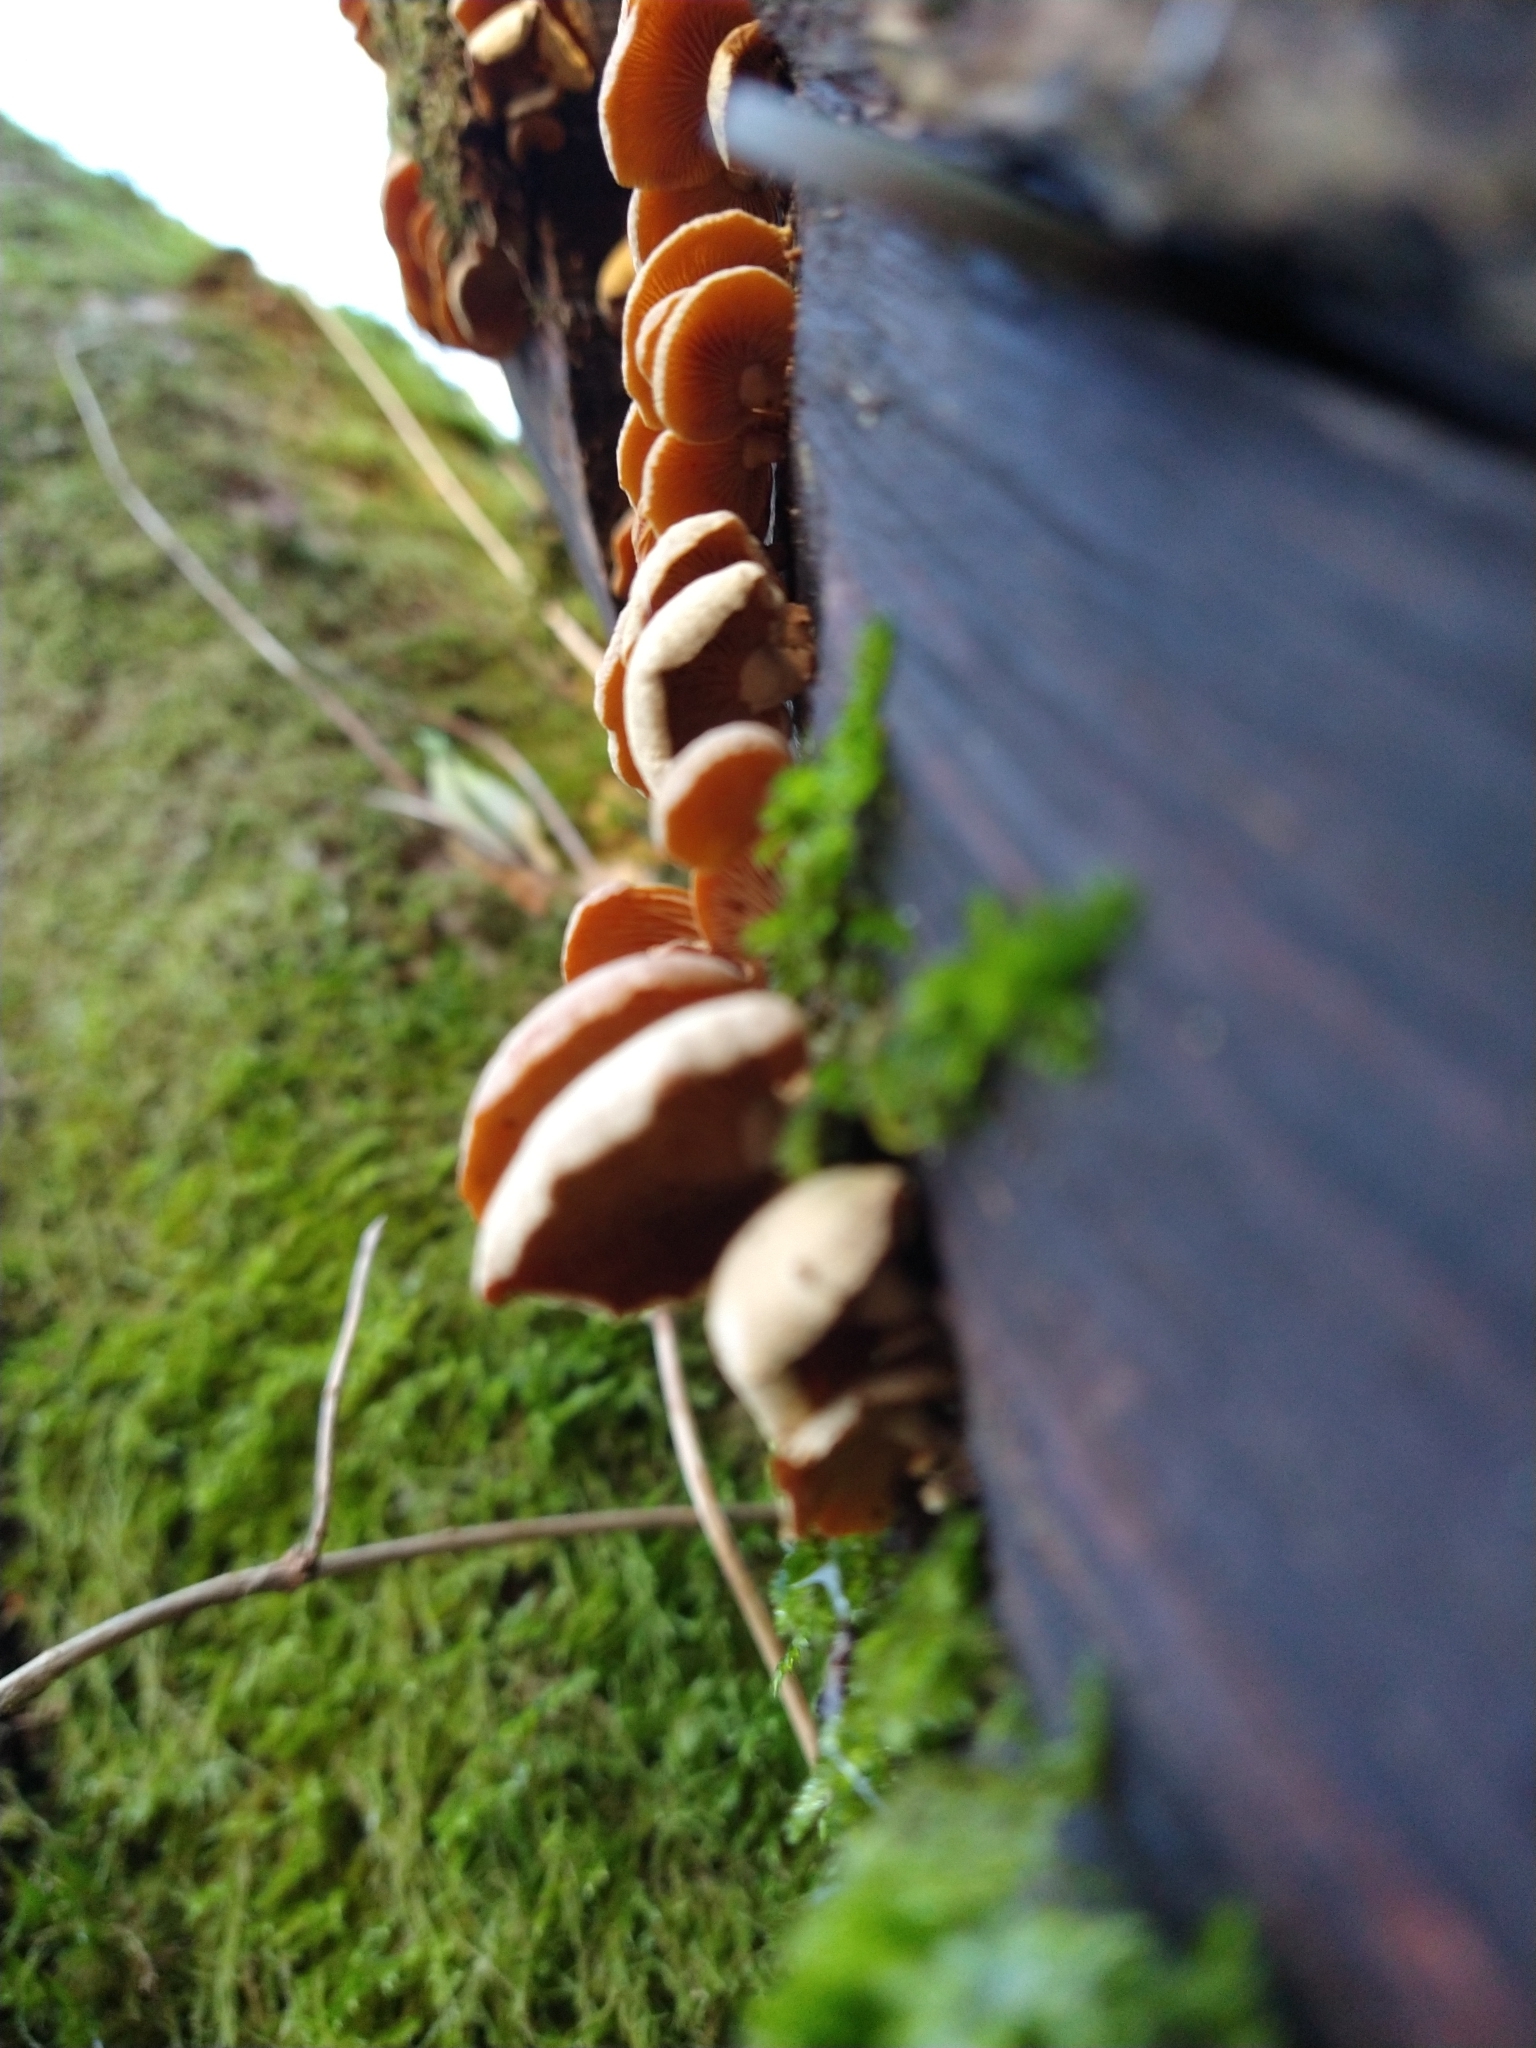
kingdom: Fungi
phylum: Basidiomycota
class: Agaricomycetes
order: Agaricales
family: Mycenaceae
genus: Panellus
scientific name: Panellus stipticus
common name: Bitter oysterling
